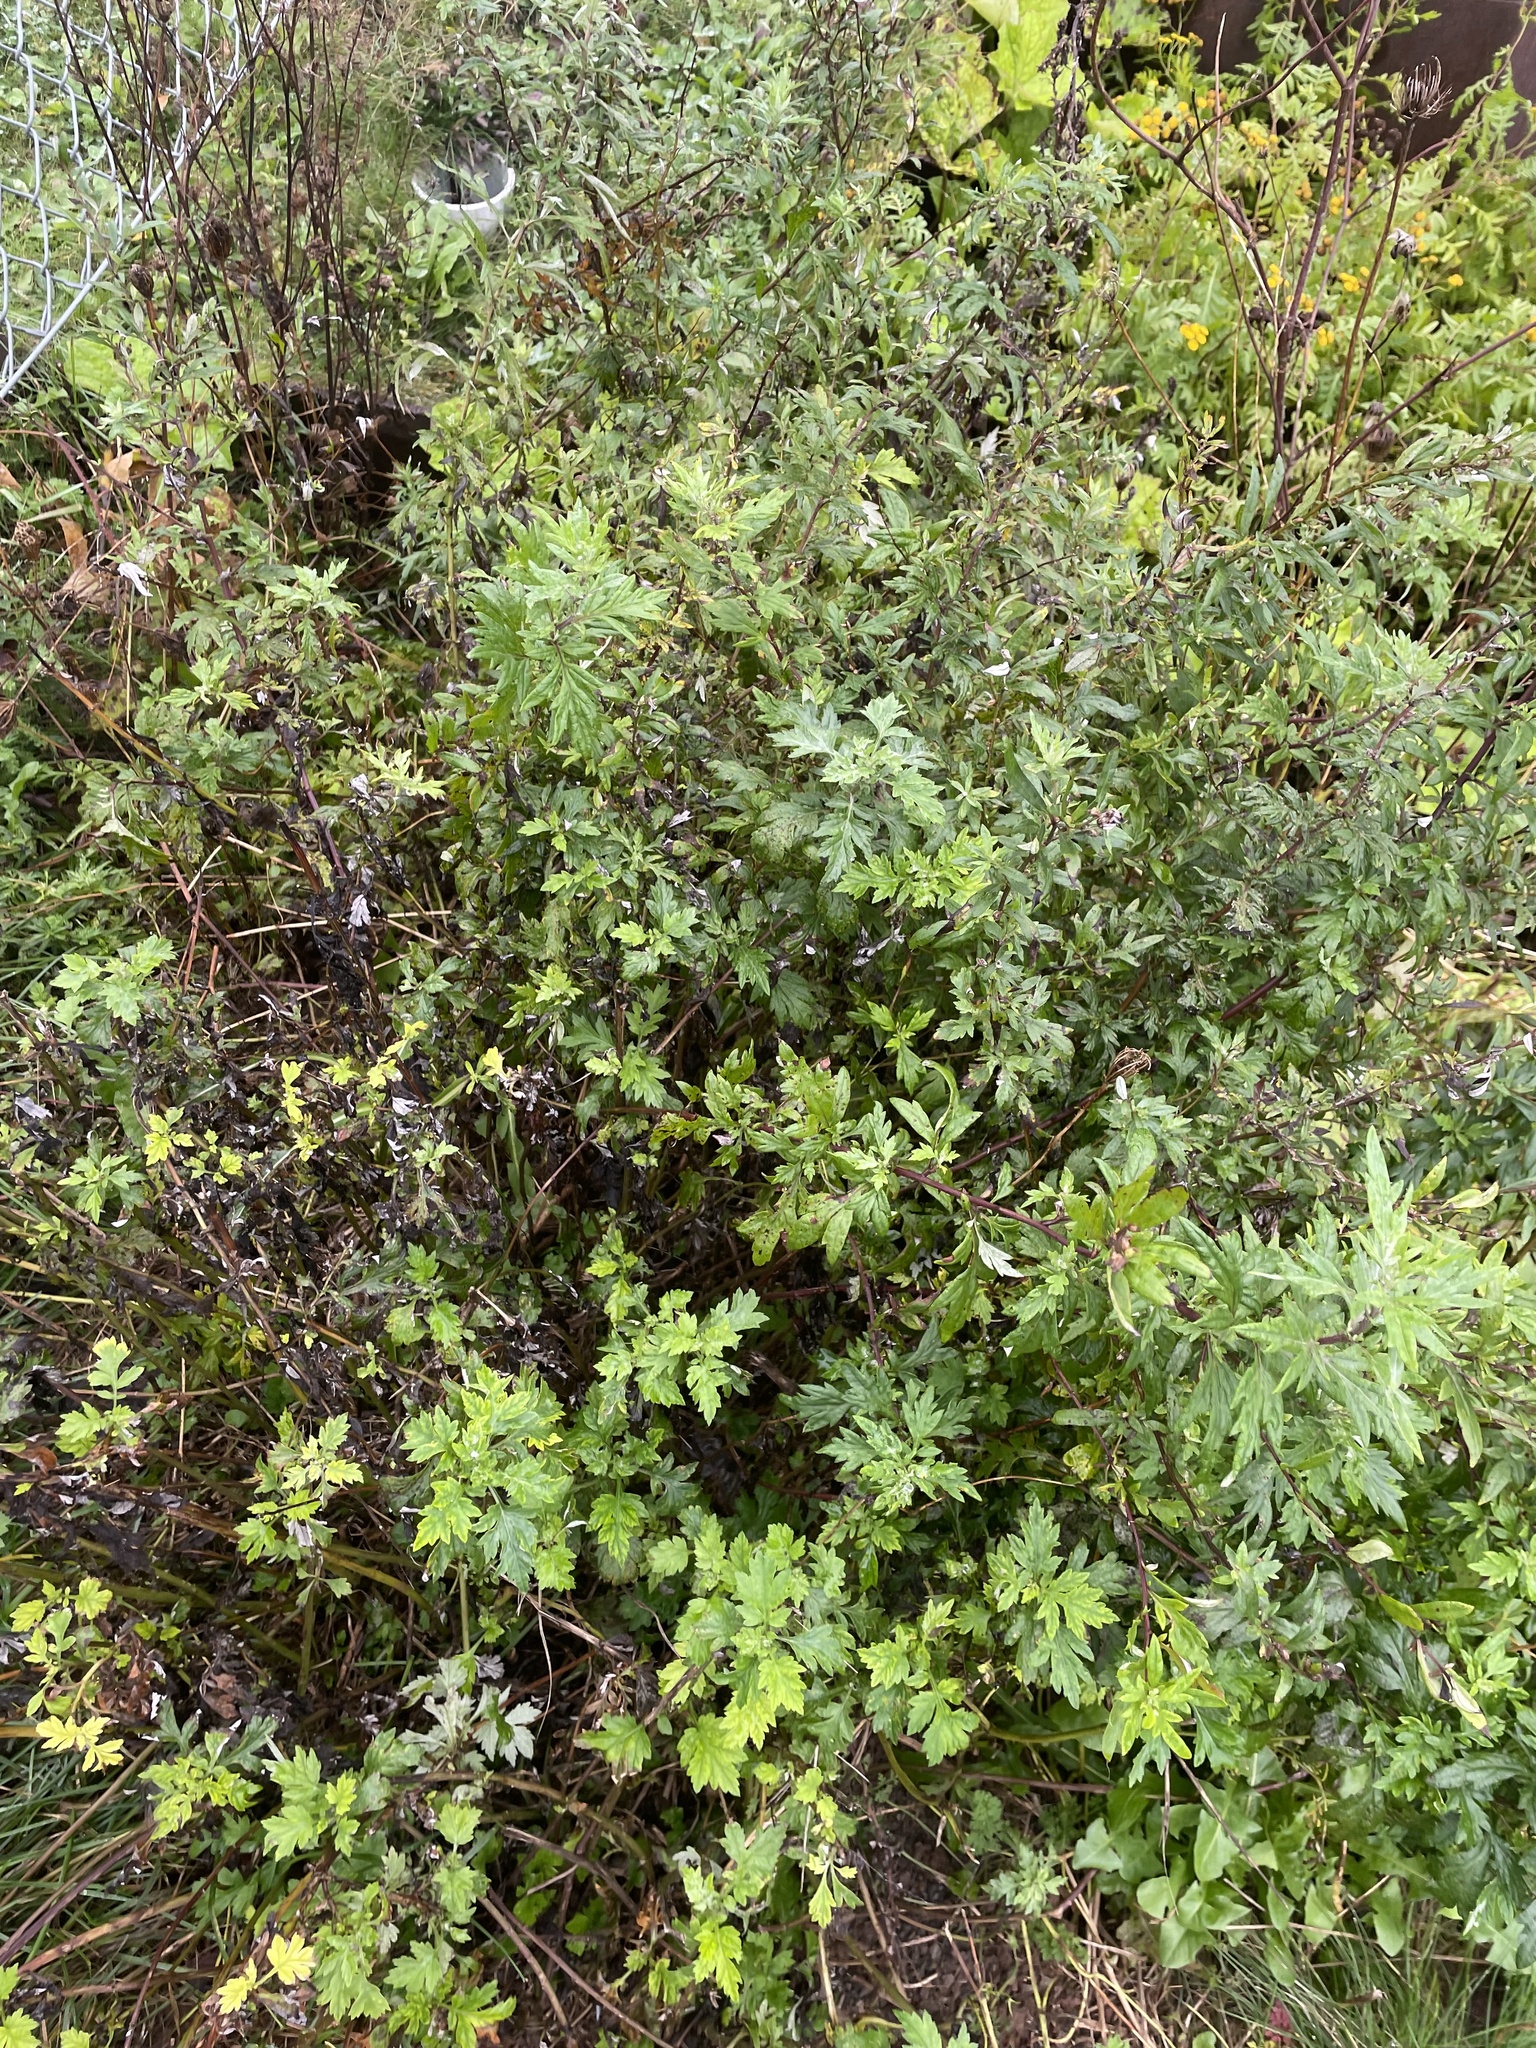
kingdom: Plantae
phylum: Tracheophyta
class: Magnoliopsida
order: Asterales
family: Asteraceae
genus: Artemisia
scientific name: Artemisia vulgaris
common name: Mugwort
